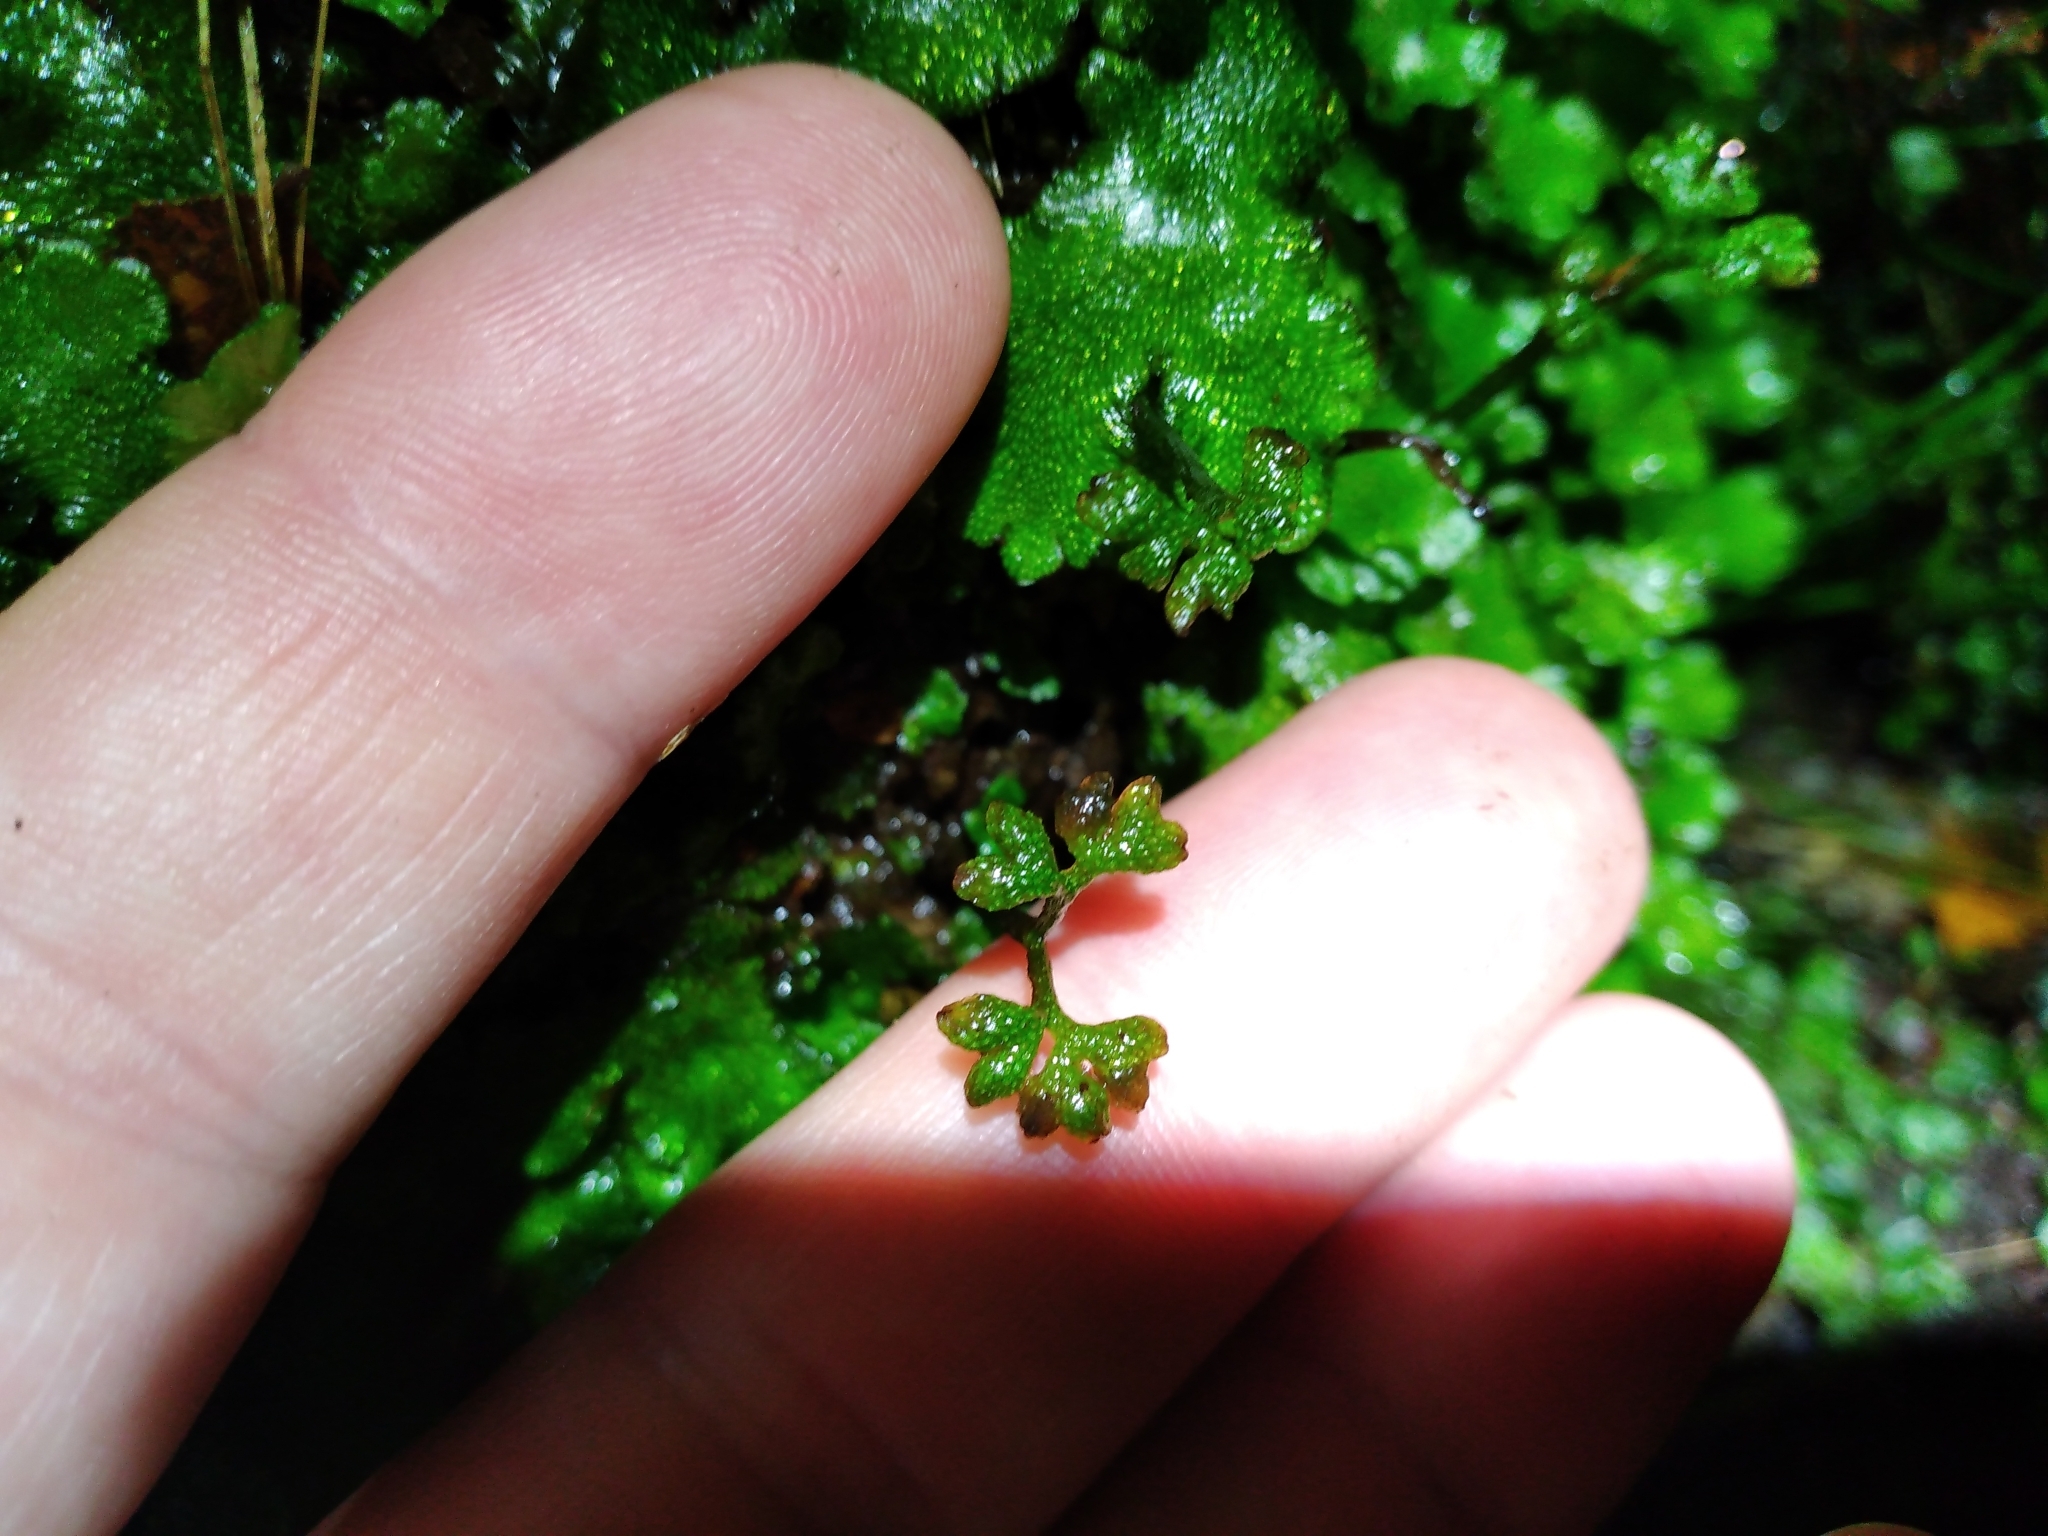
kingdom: Plantae
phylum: Marchantiophyta
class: Marchantiopsida
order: Neohodgsoniales
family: Neohodgsoniaceae
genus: Neohodgsonia
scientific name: Neohodgsonia mirabilis
